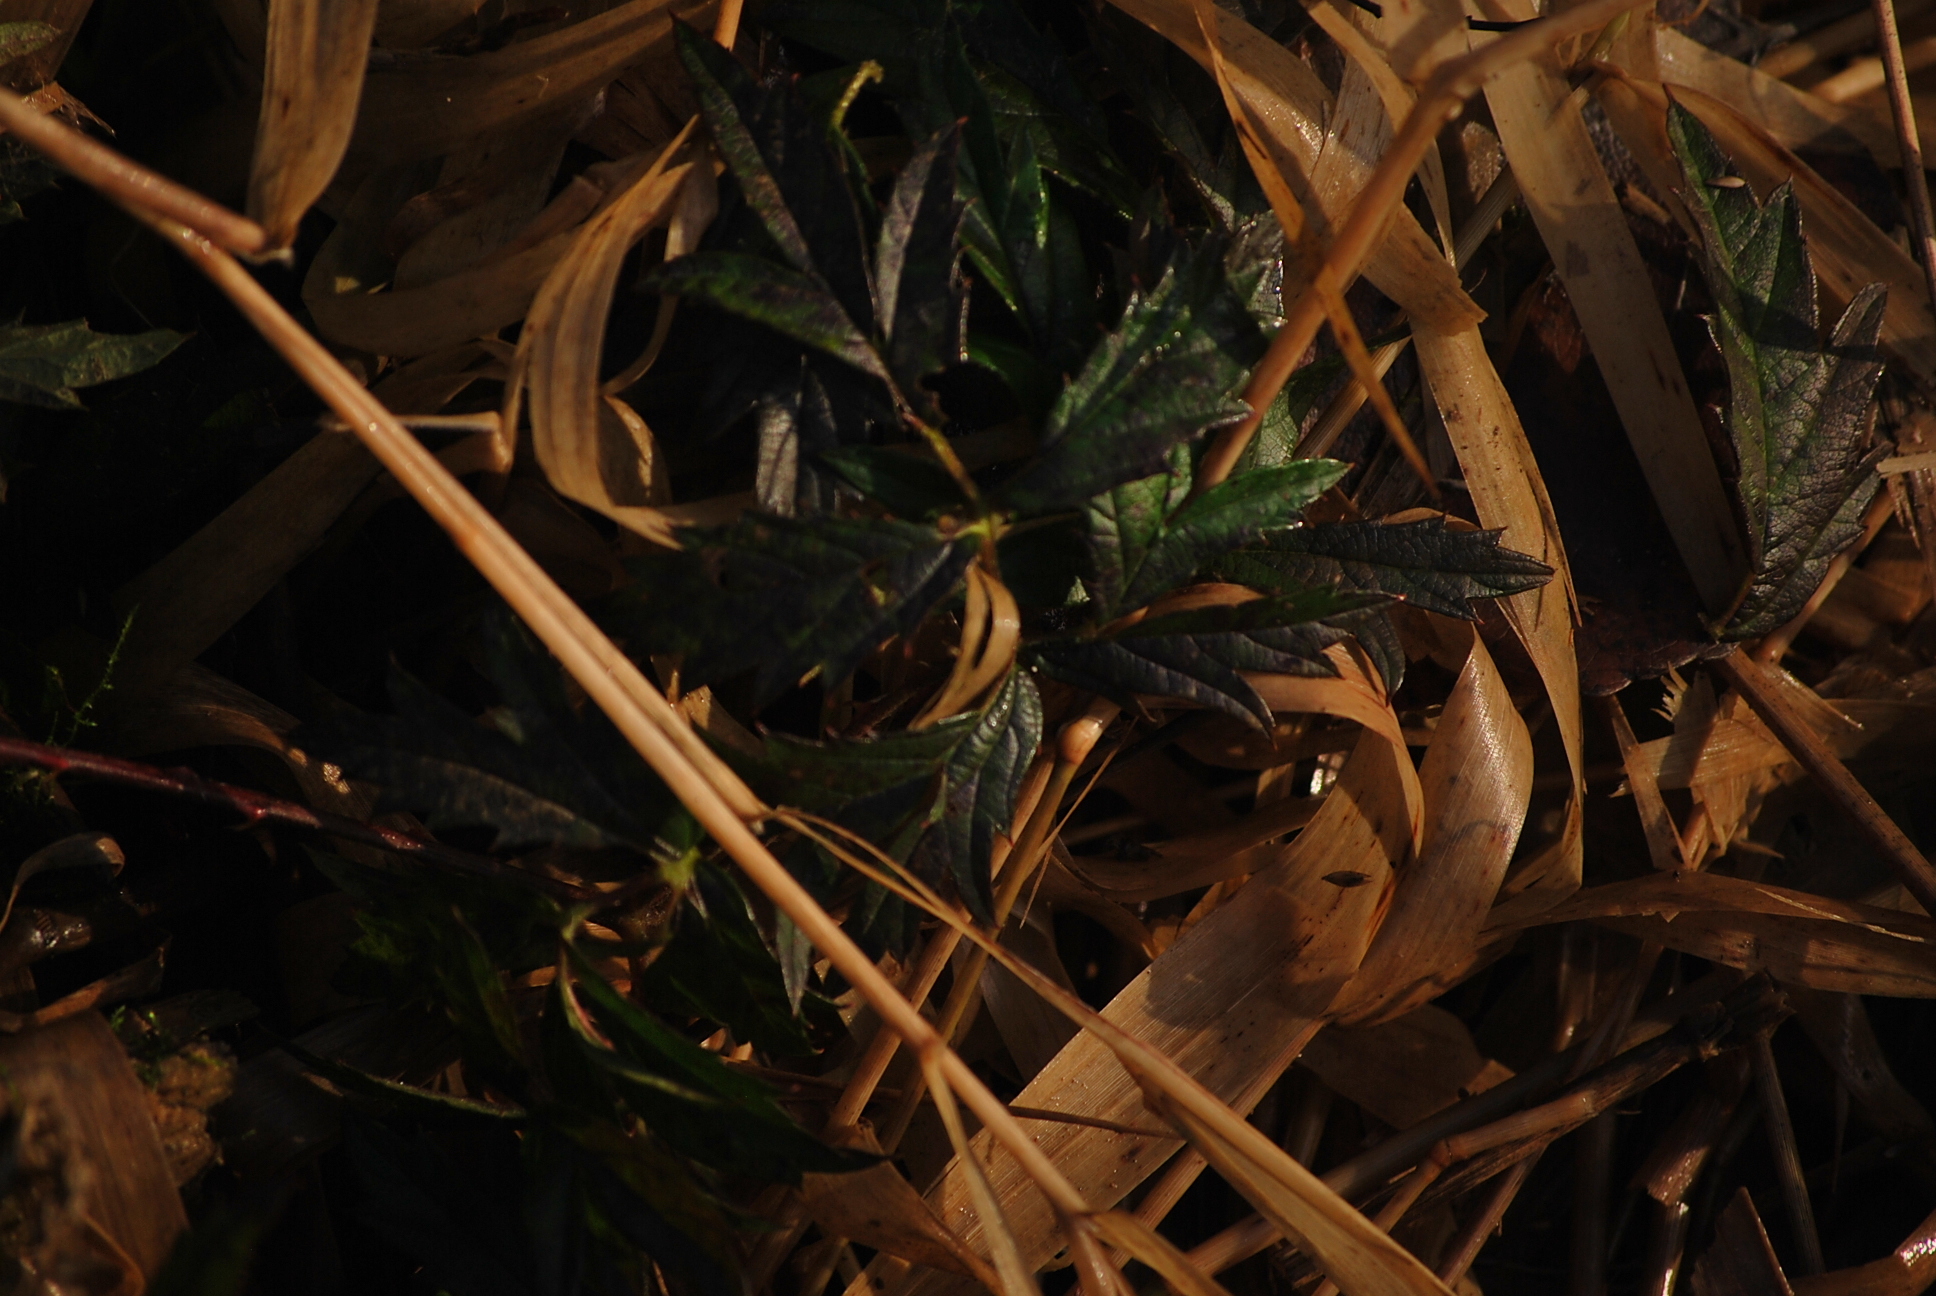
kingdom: Plantae
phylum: Tracheophyta
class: Magnoliopsida
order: Rosales
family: Rosaceae
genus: Rubus
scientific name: Rubus laciniatus
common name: Evergreen blackberry
